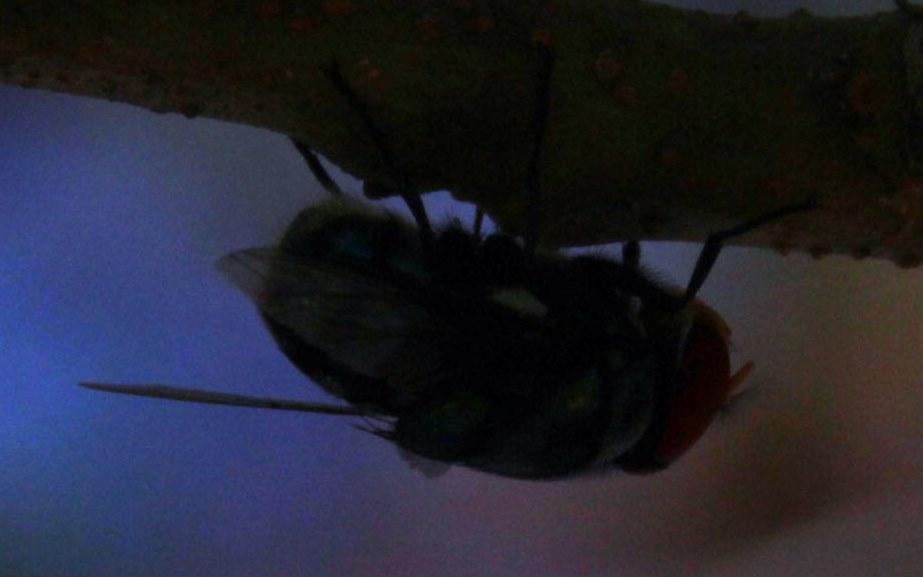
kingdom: Animalia
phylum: Arthropoda
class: Insecta
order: Diptera
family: Calliphoridae
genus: Chrysomya
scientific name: Chrysomya marginalis
